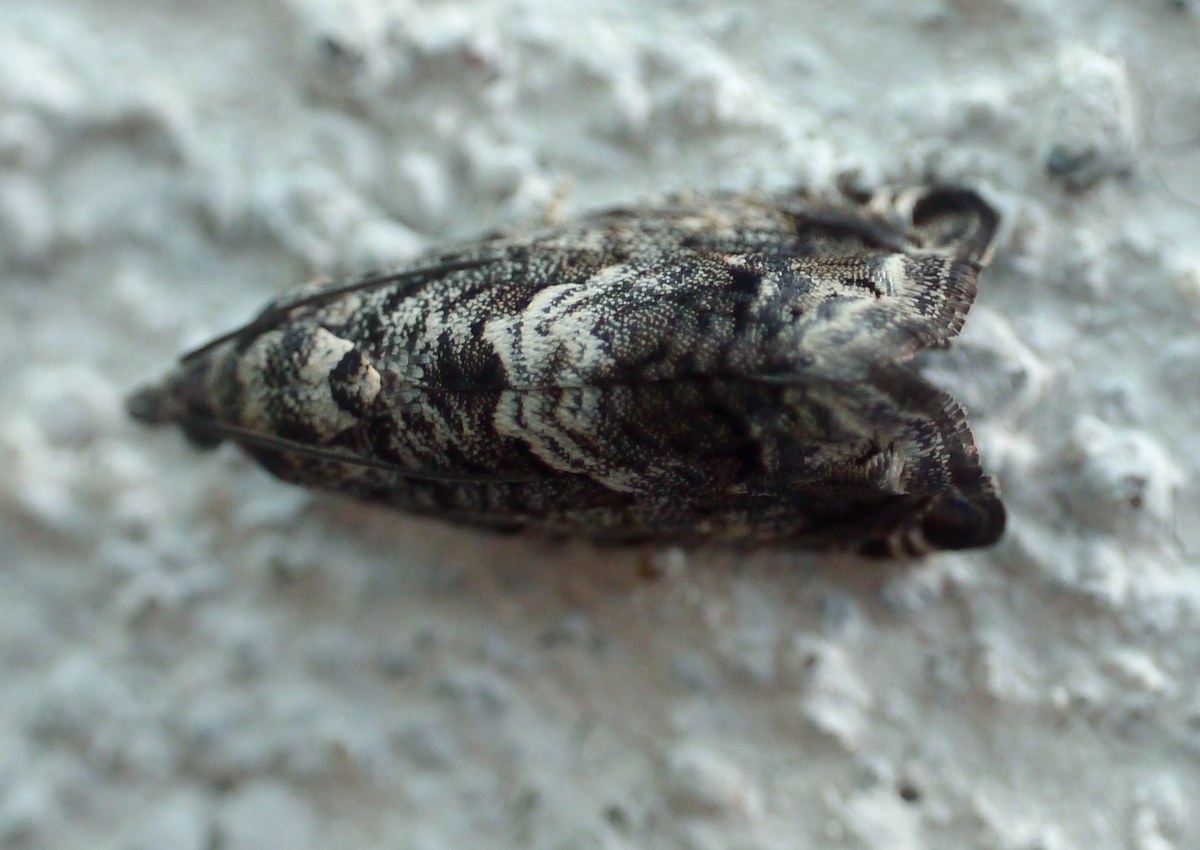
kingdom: Animalia
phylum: Arthropoda
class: Insecta
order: Lepidoptera
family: Tortricidae
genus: Cydia
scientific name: Cydia fagiglandana
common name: Large beech piercer
